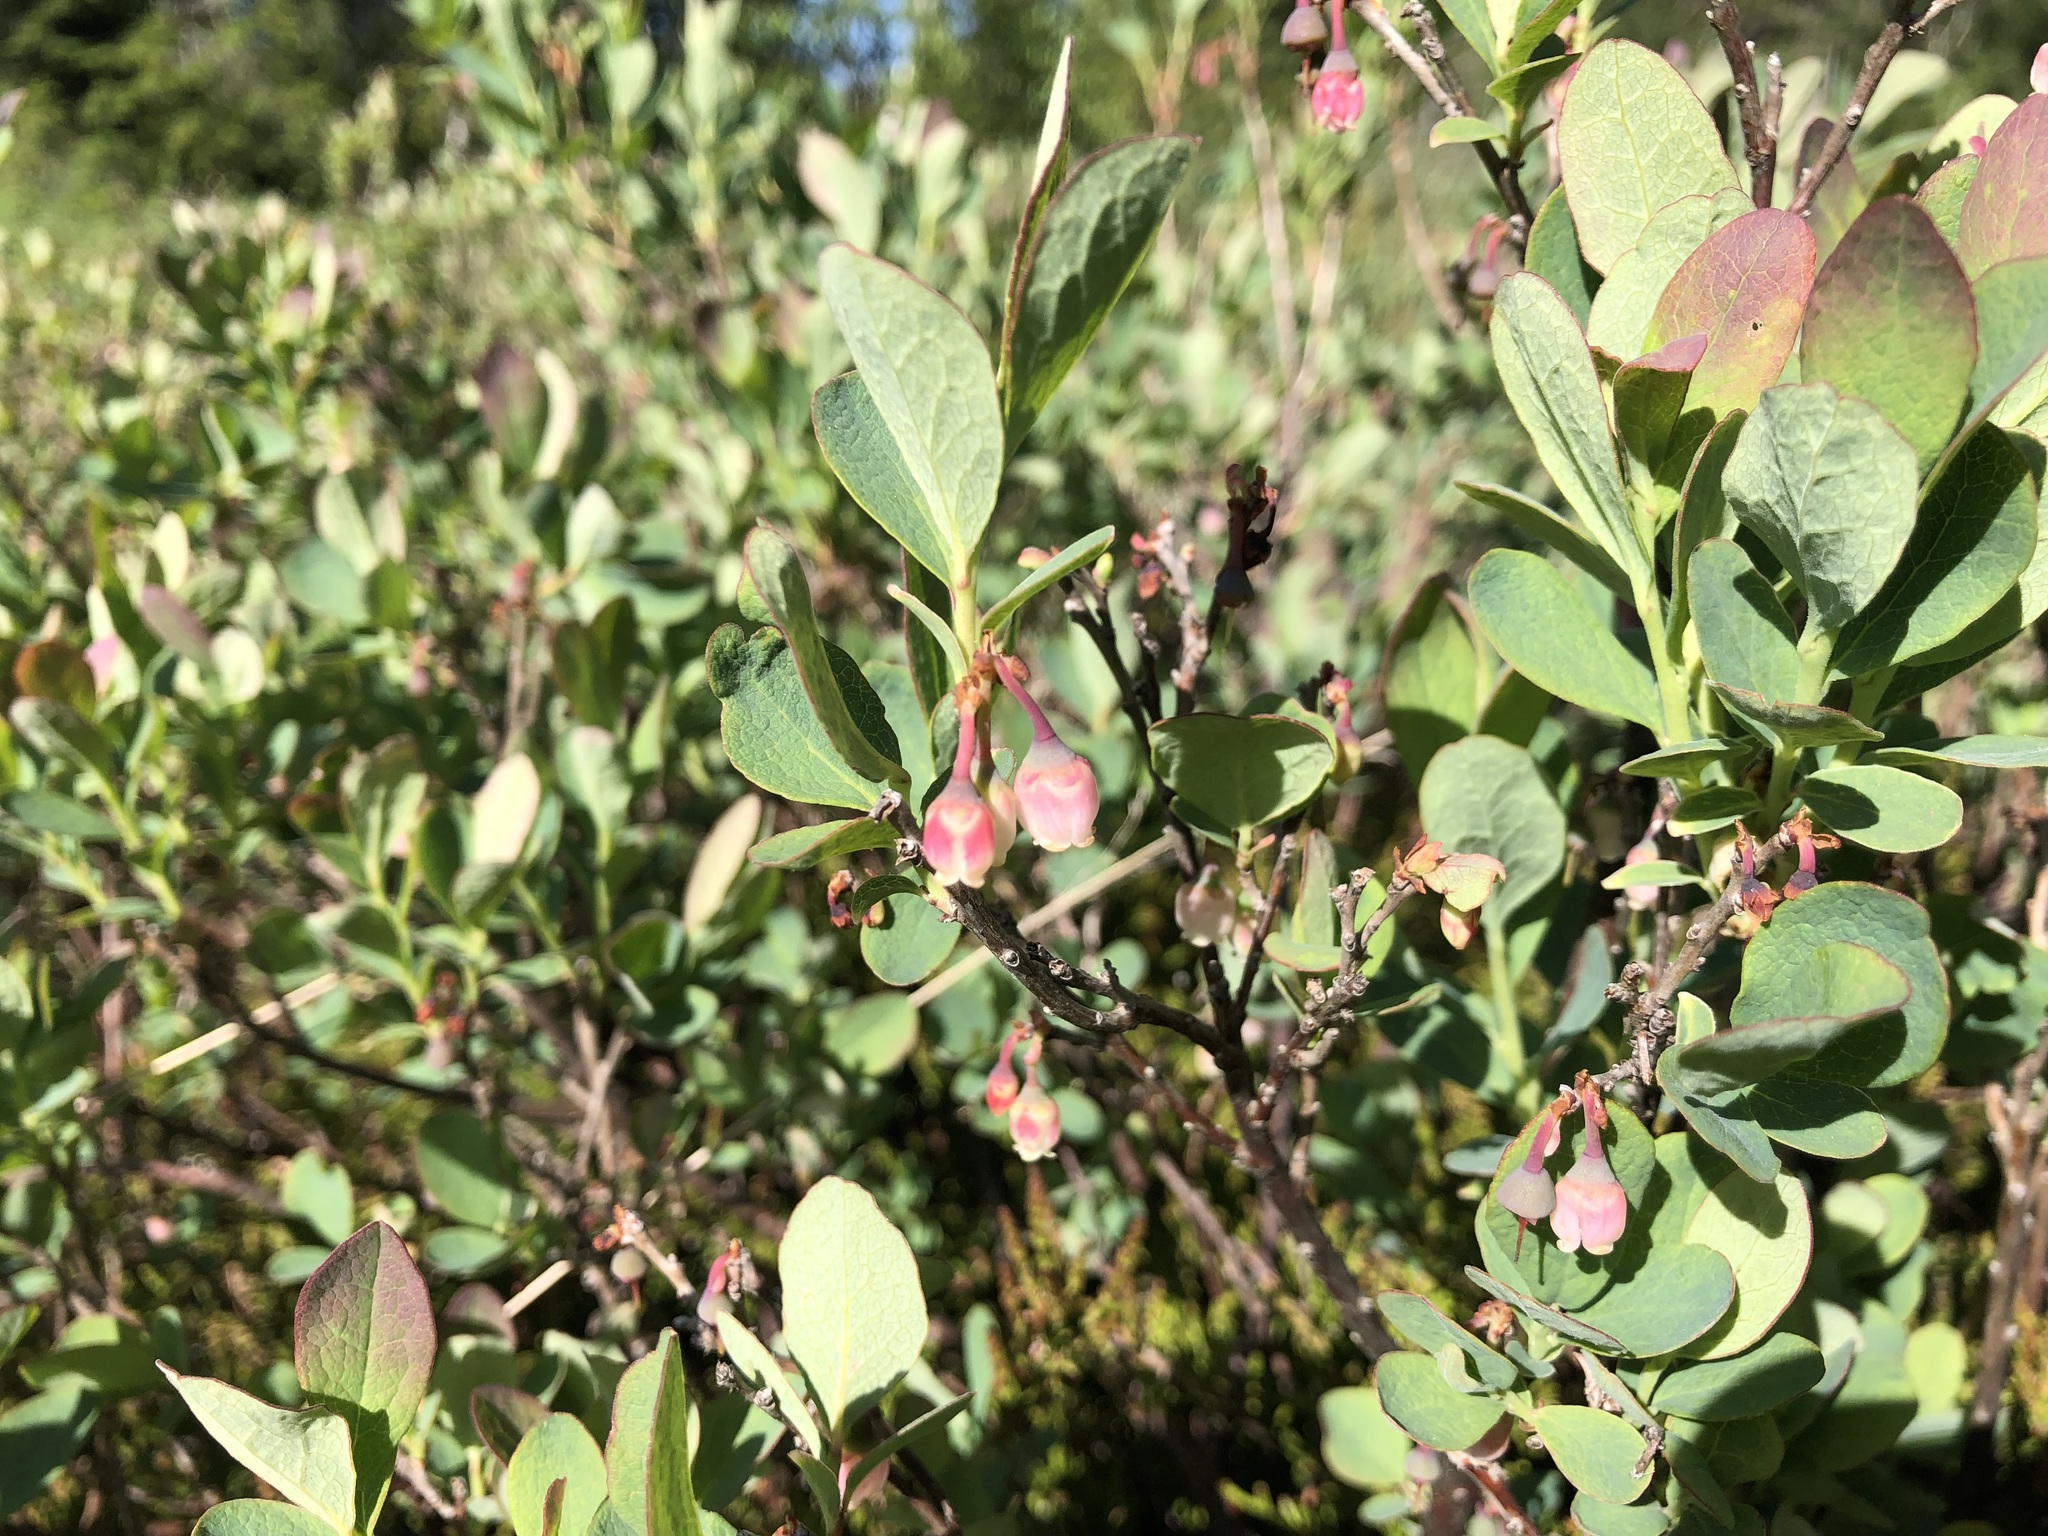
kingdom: Plantae
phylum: Tracheophyta
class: Magnoliopsida
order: Ericales
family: Ericaceae
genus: Vaccinium
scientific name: Vaccinium uliginosum
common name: Bog bilberry
